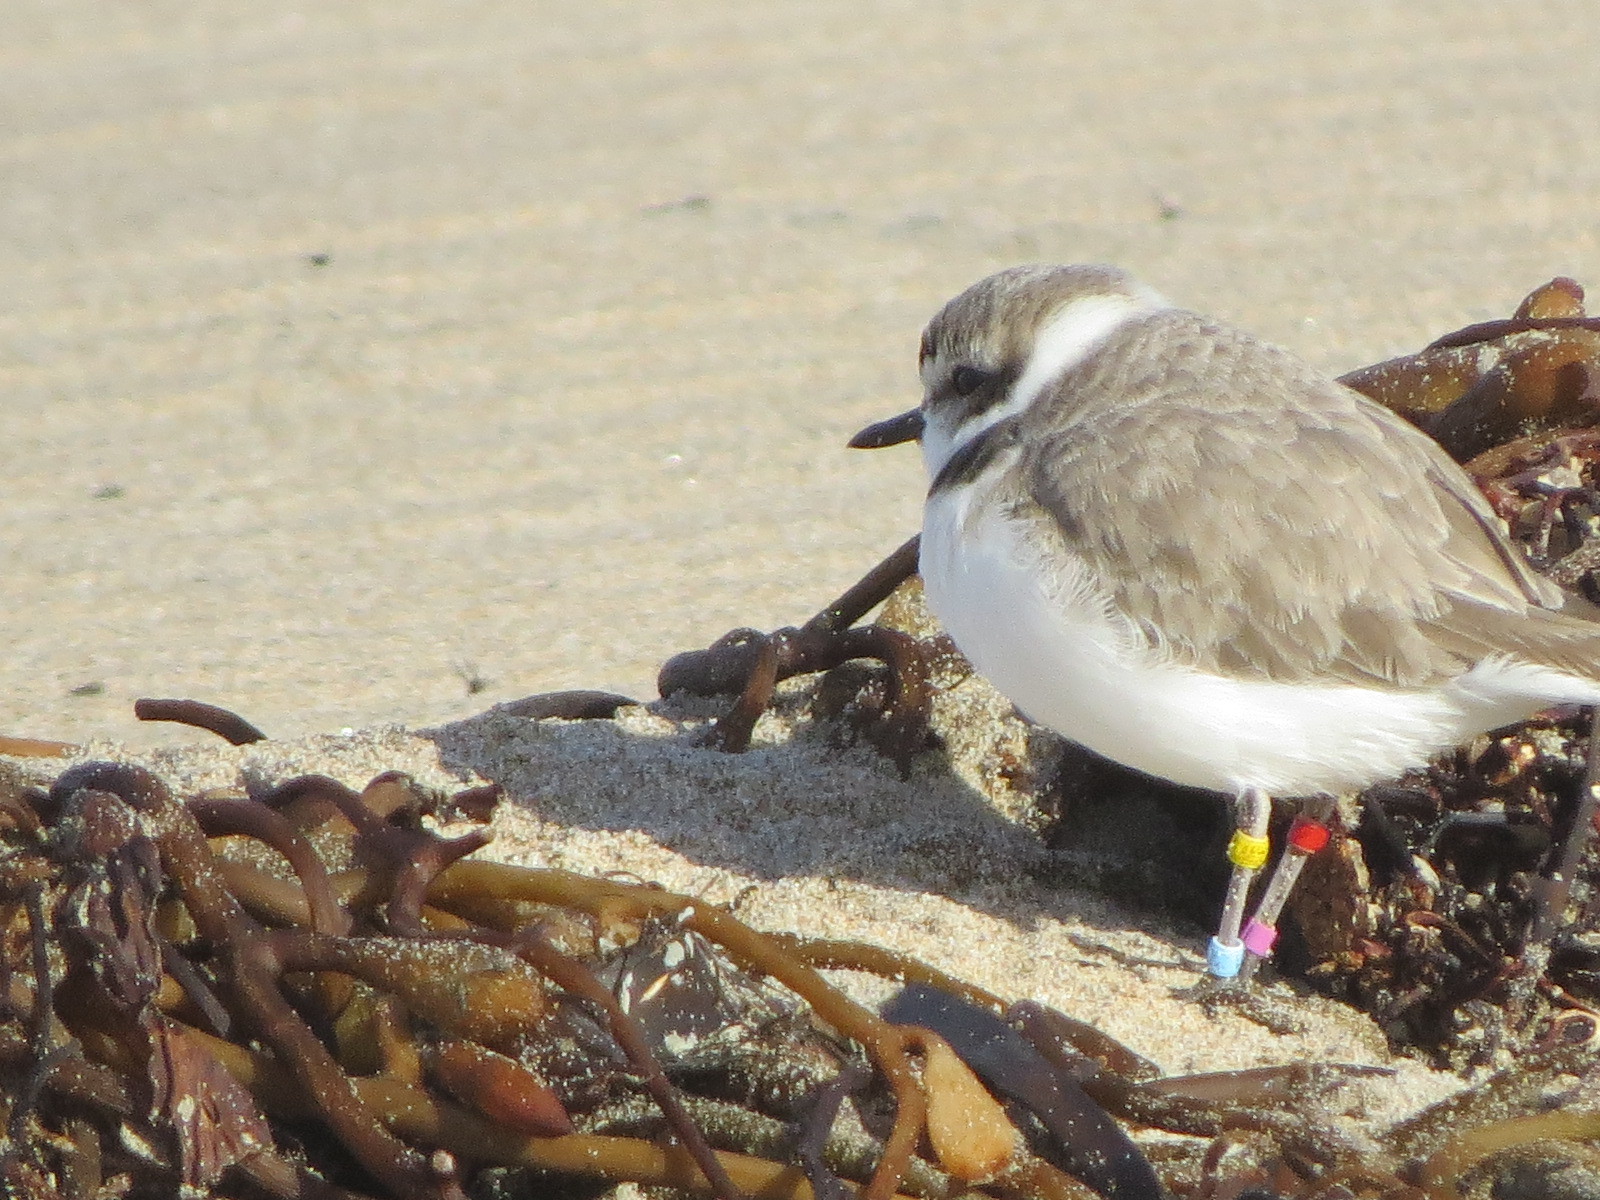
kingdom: Animalia
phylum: Chordata
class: Aves
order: Charadriiformes
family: Charadriidae
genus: Anarhynchus
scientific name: Anarhynchus
